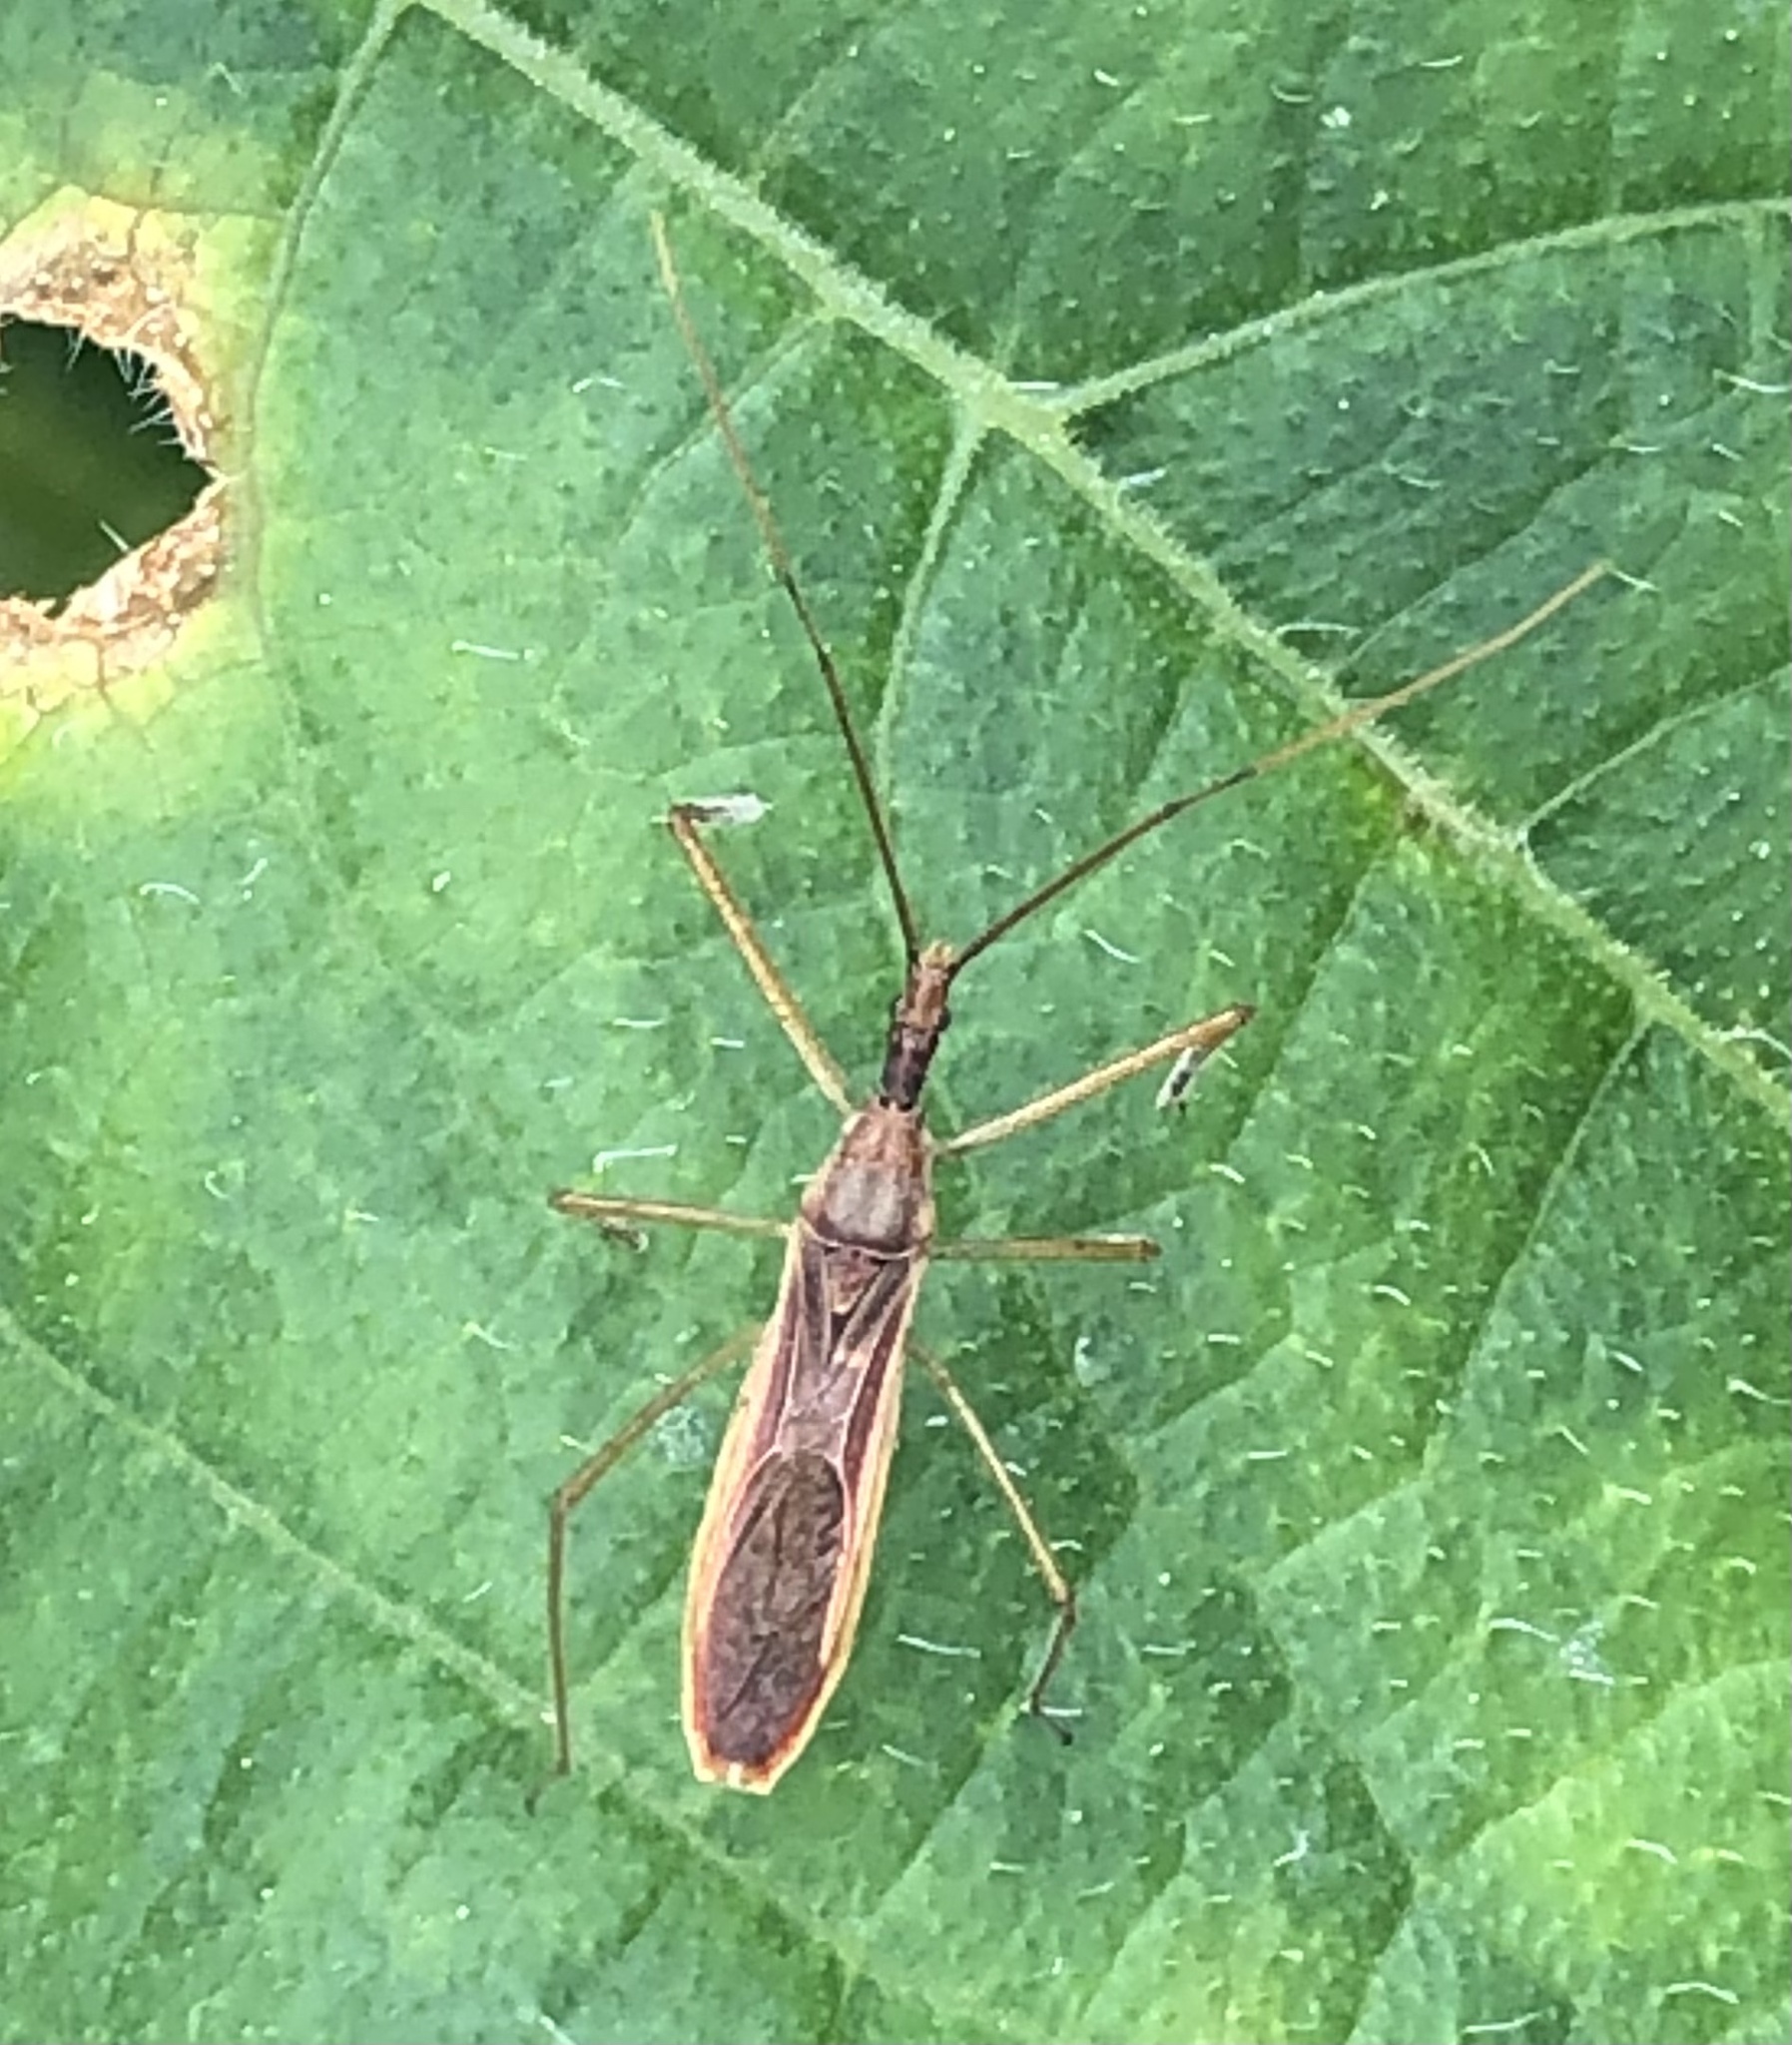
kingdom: Animalia
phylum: Arthropoda
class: Insecta
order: Hemiptera
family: Reduviidae
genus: Zelus
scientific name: Zelus cervicalis
